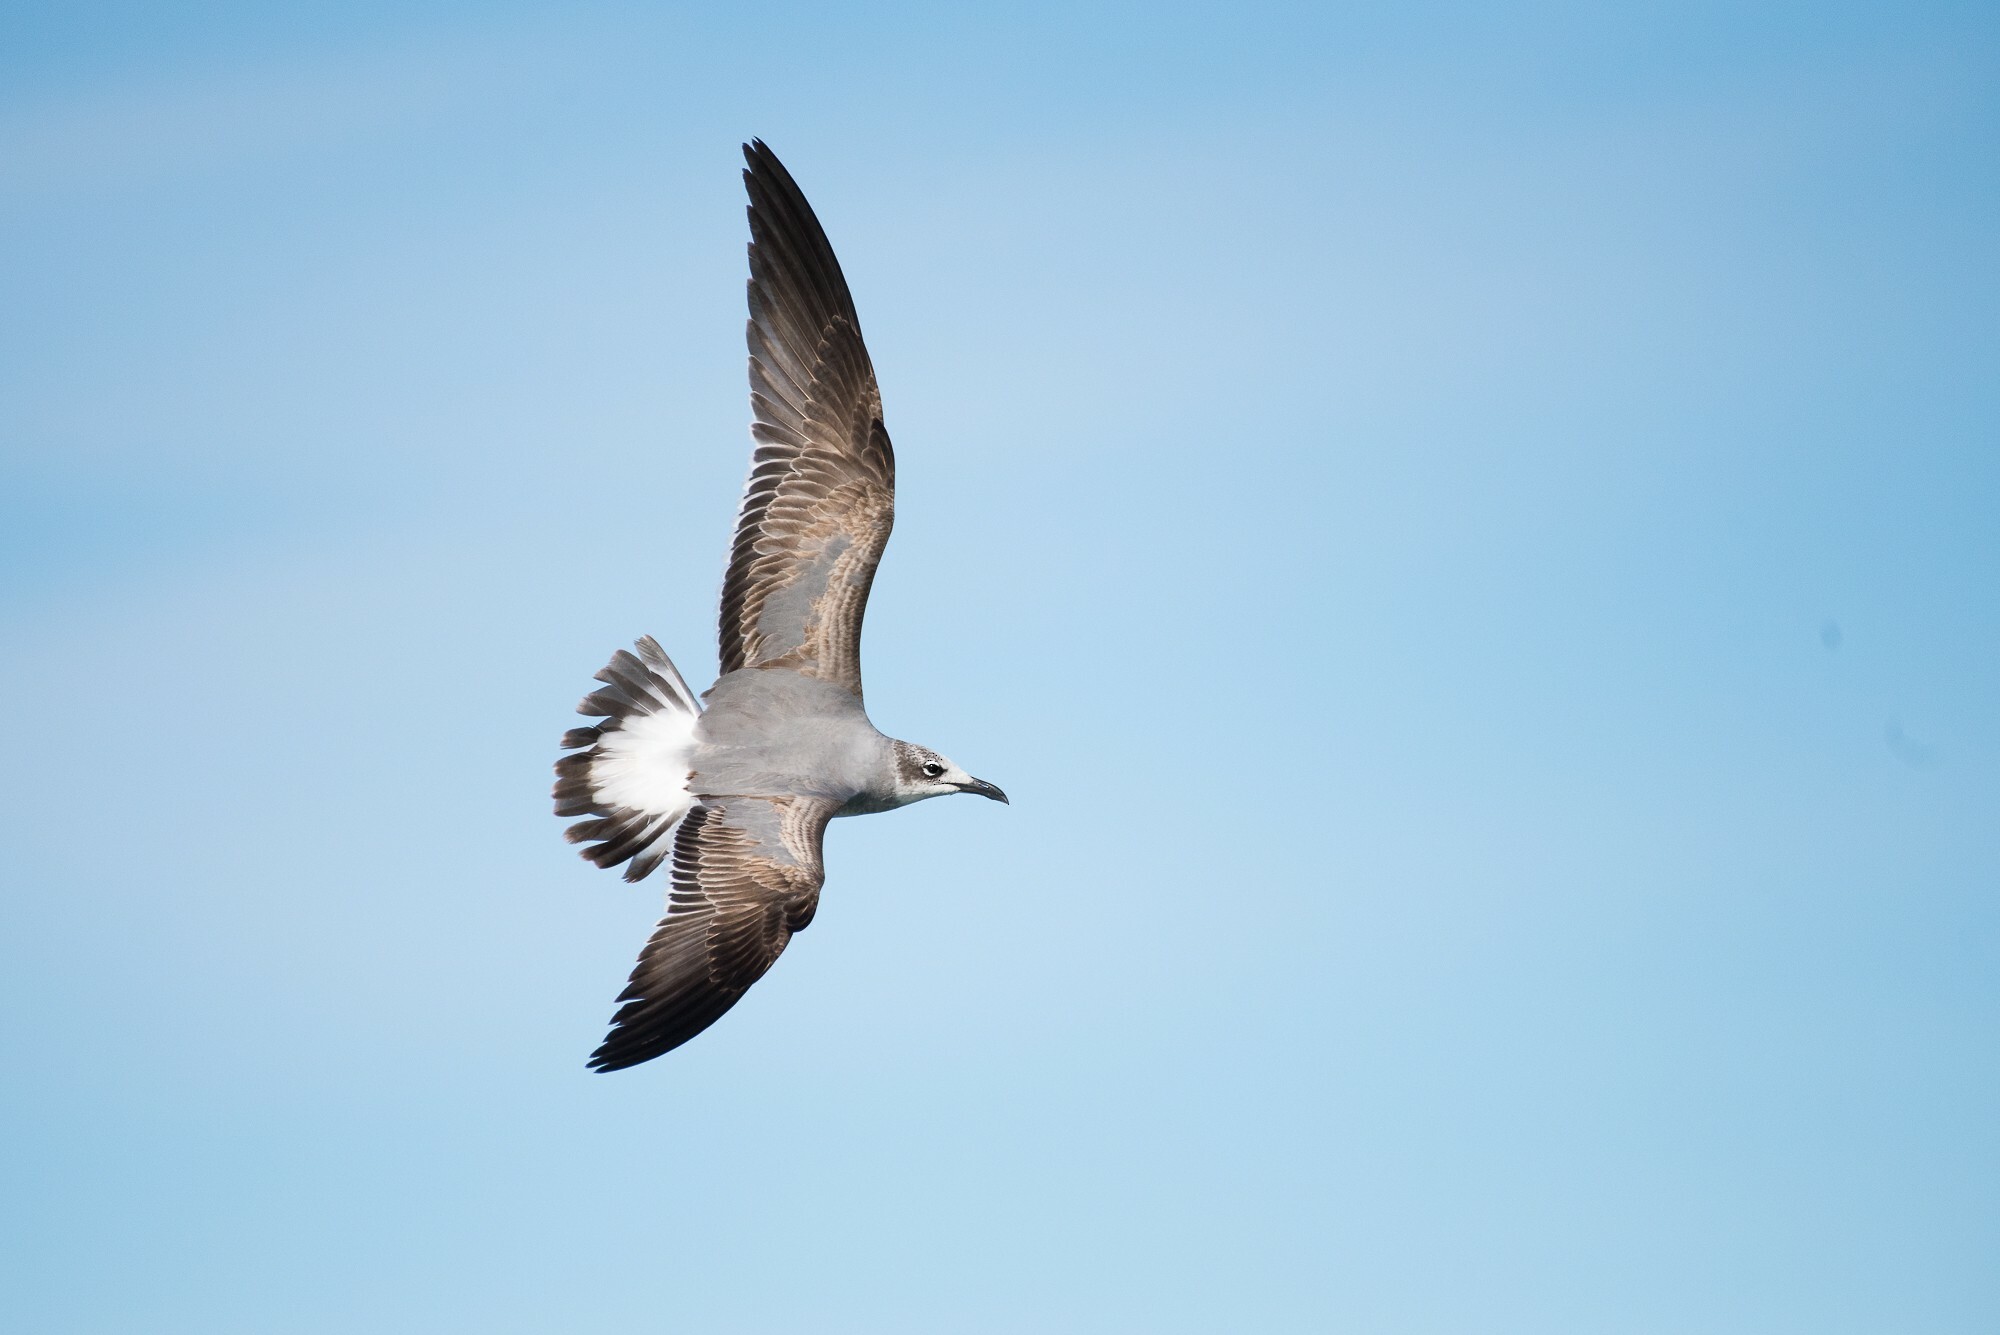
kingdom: Animalia
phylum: Chordata
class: Aves
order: Charadriiformes
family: Laridae
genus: Leucophaeus
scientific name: Leucophaeus atricilla
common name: Laughing gull
